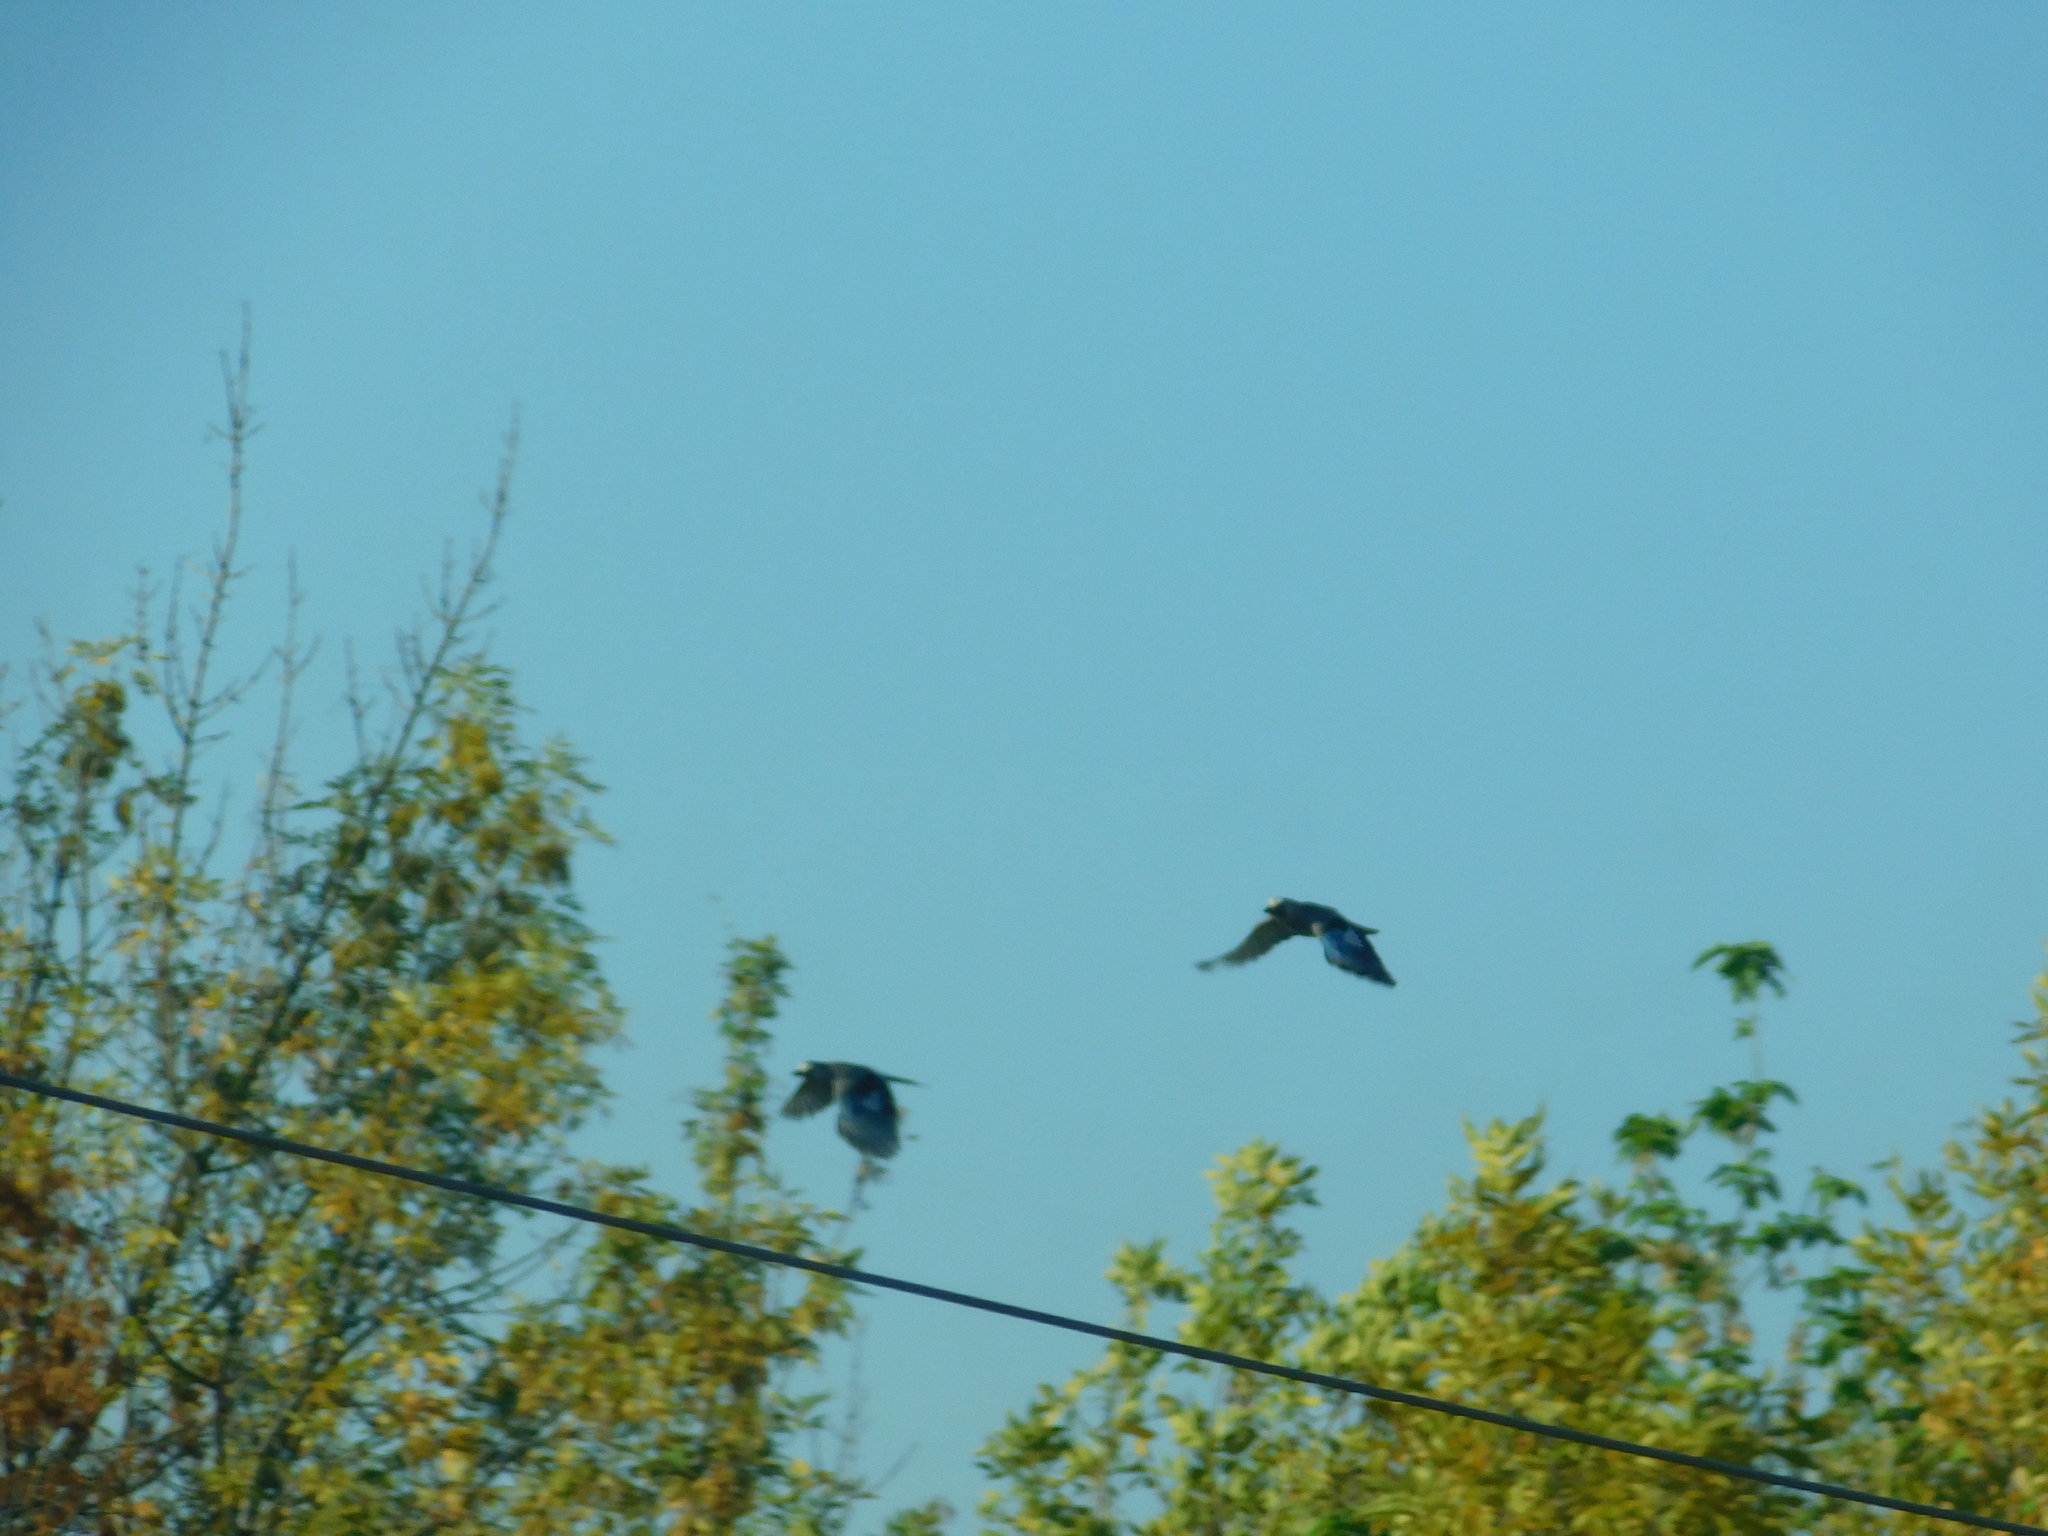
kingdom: Animalia
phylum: Chordata
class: Aves
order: Passeriformes
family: Corvidae
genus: Garrulus
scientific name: Garrulus glandarius
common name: Eurasian jay
